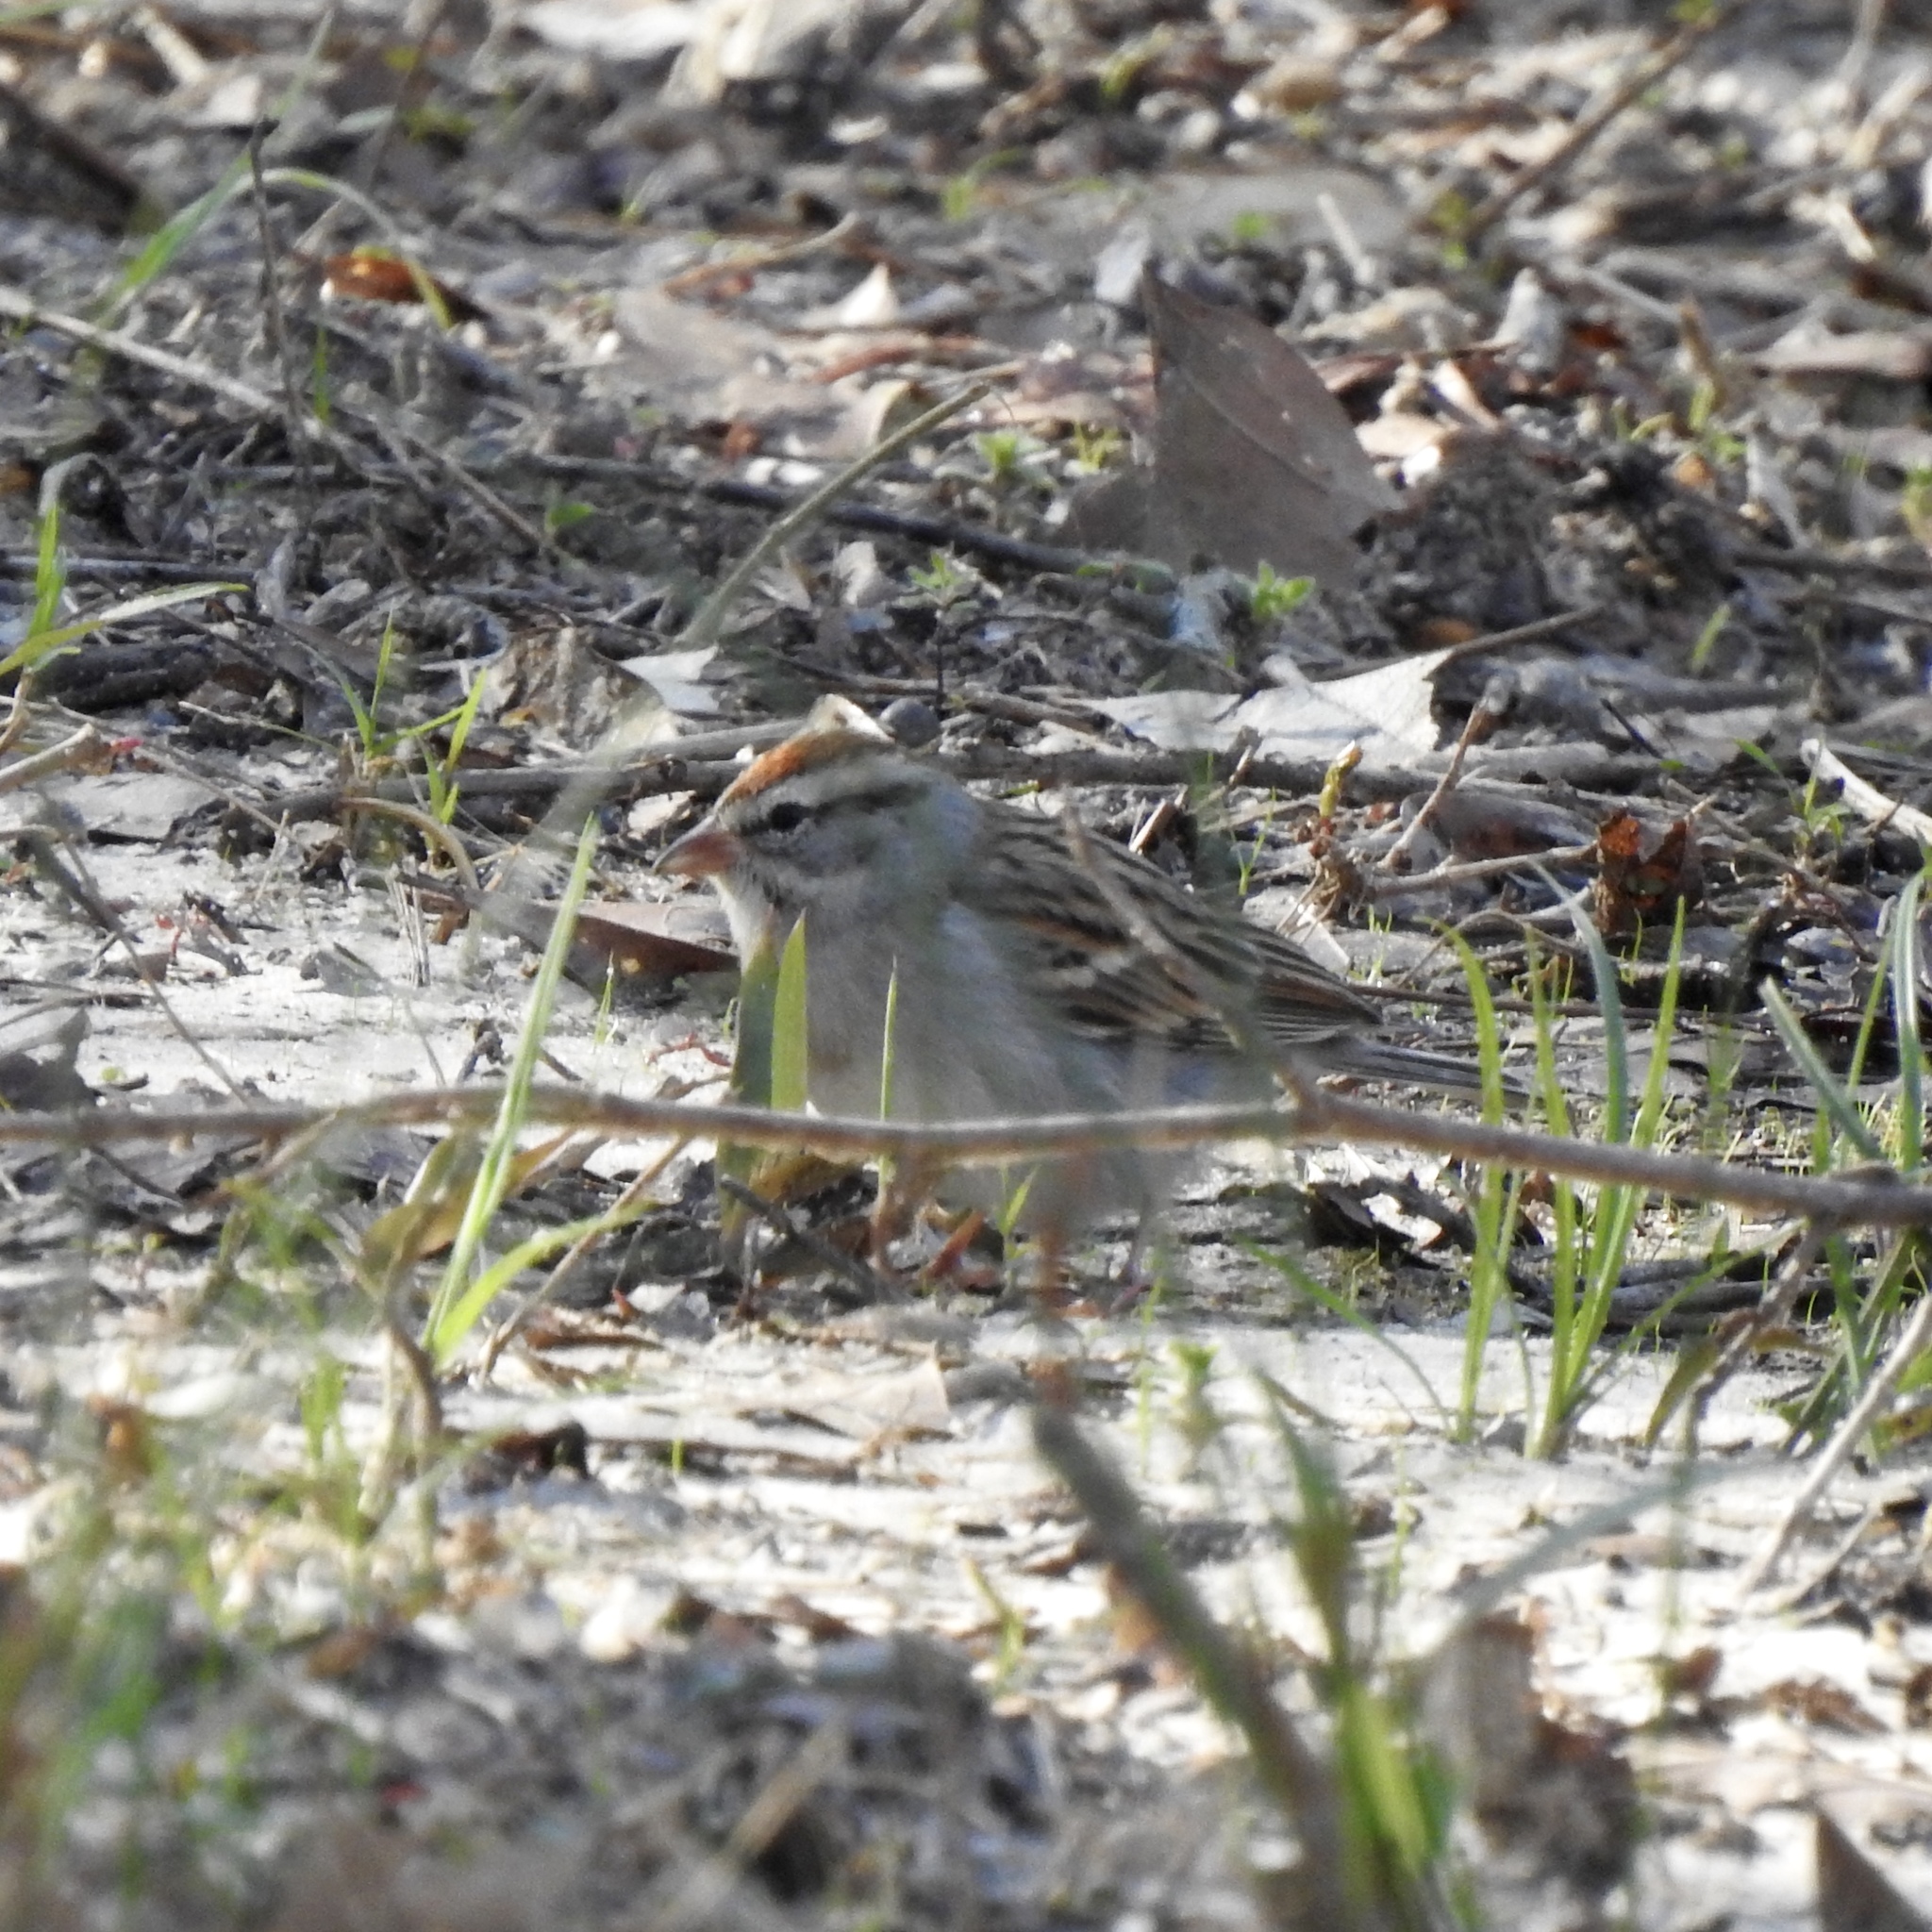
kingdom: Animalia
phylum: Chordata
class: Aves
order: Passeriformes
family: Passerellidae
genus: Spizella
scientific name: Spizella passerina
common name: Chipping sparrow
